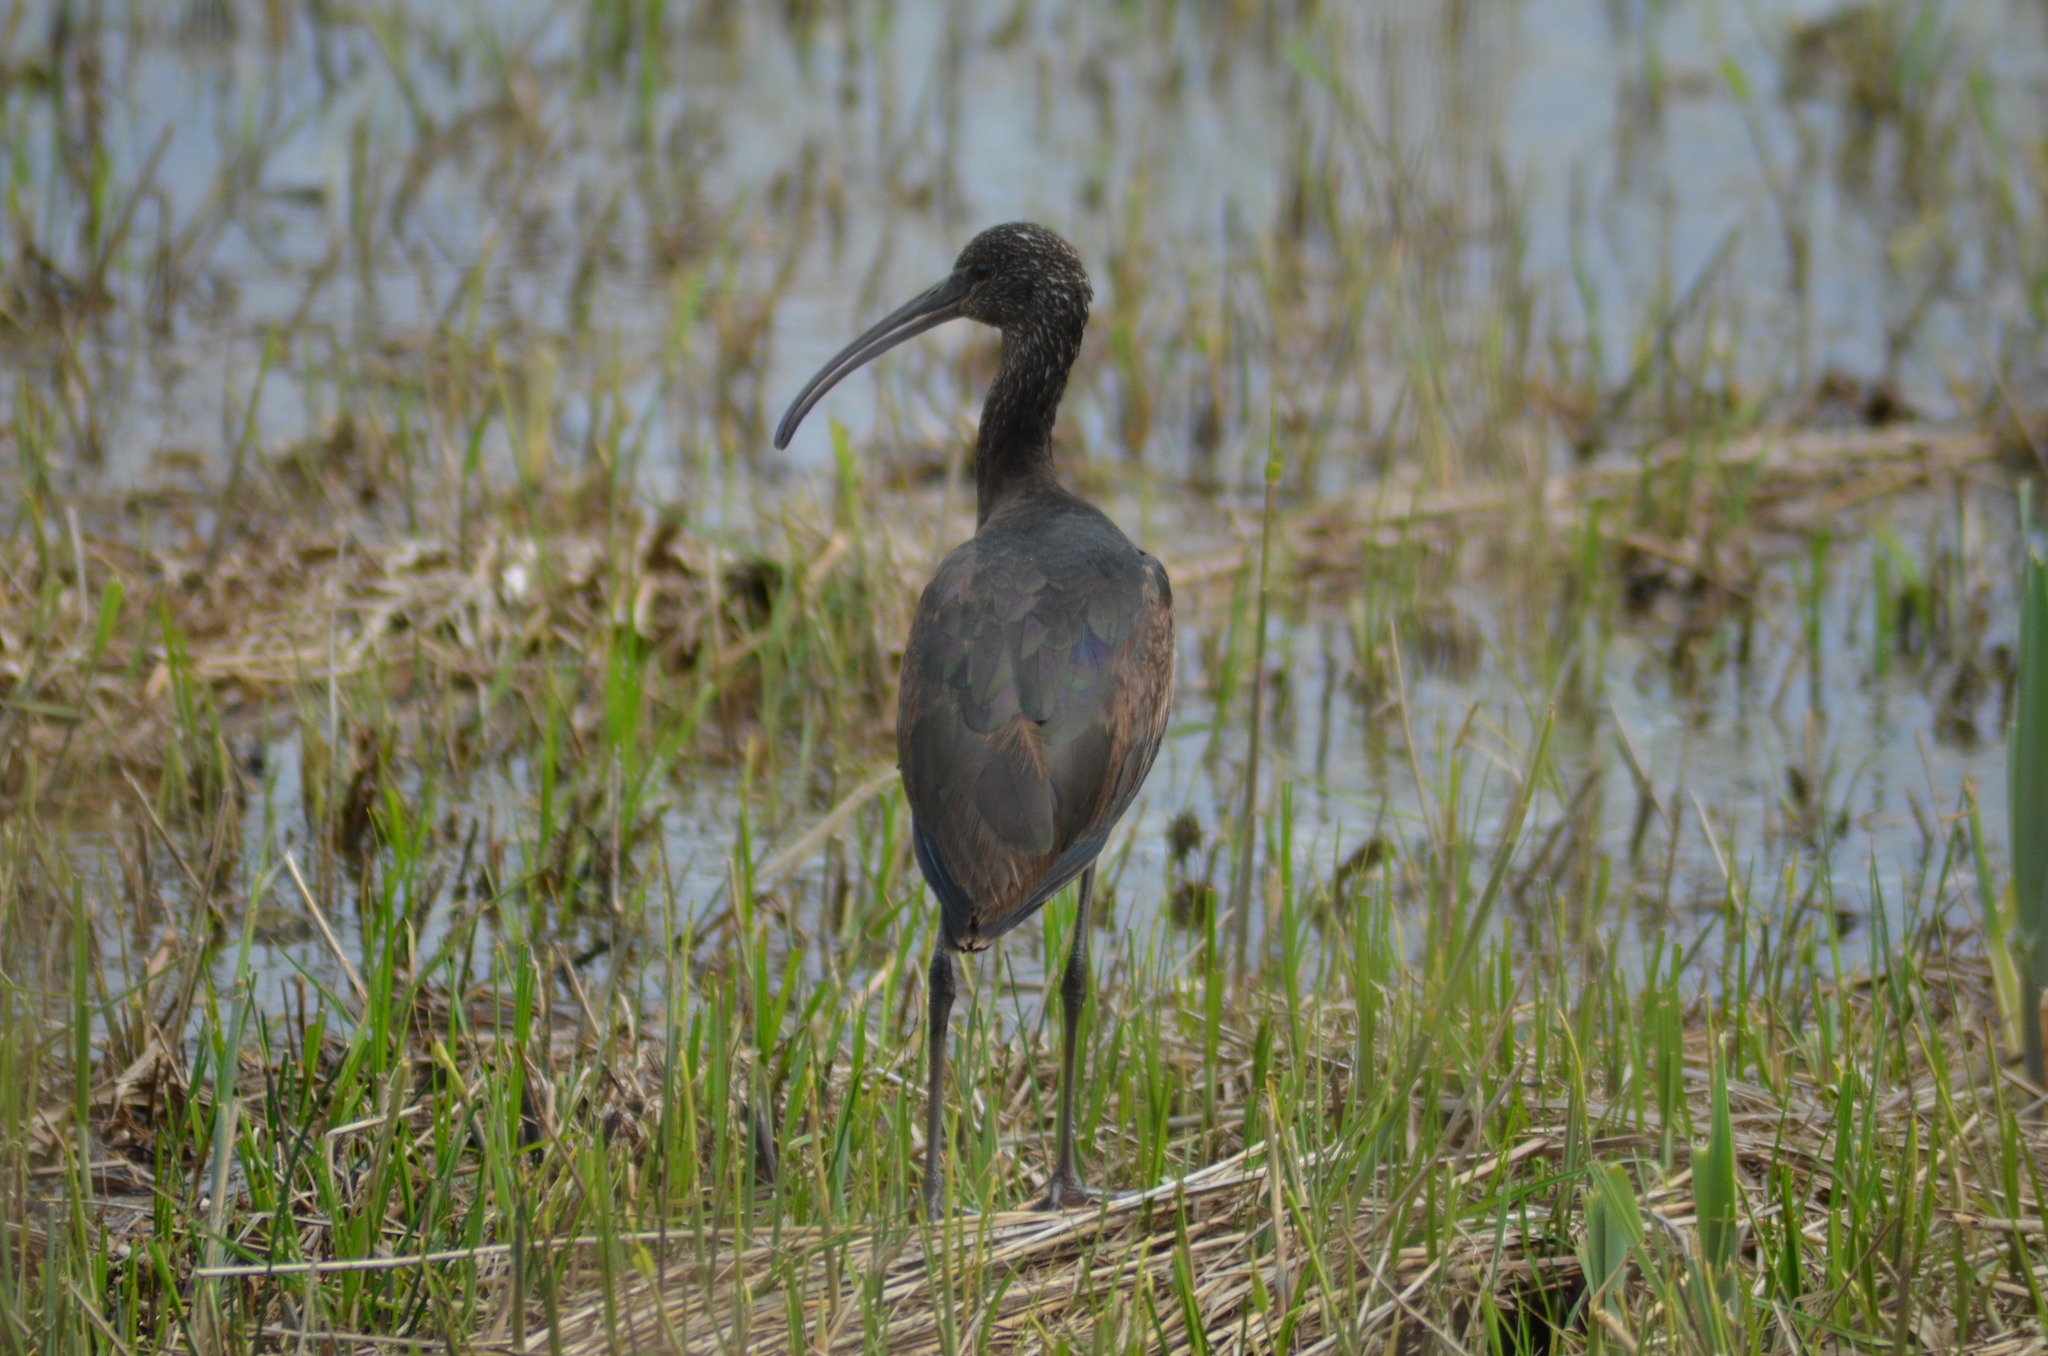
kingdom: Animalia
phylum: Chordata
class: Aves
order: Pelecaniformes
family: Threskiornithidae
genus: Plegadis
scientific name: Plegadis falcinellus
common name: Glossy ibis
